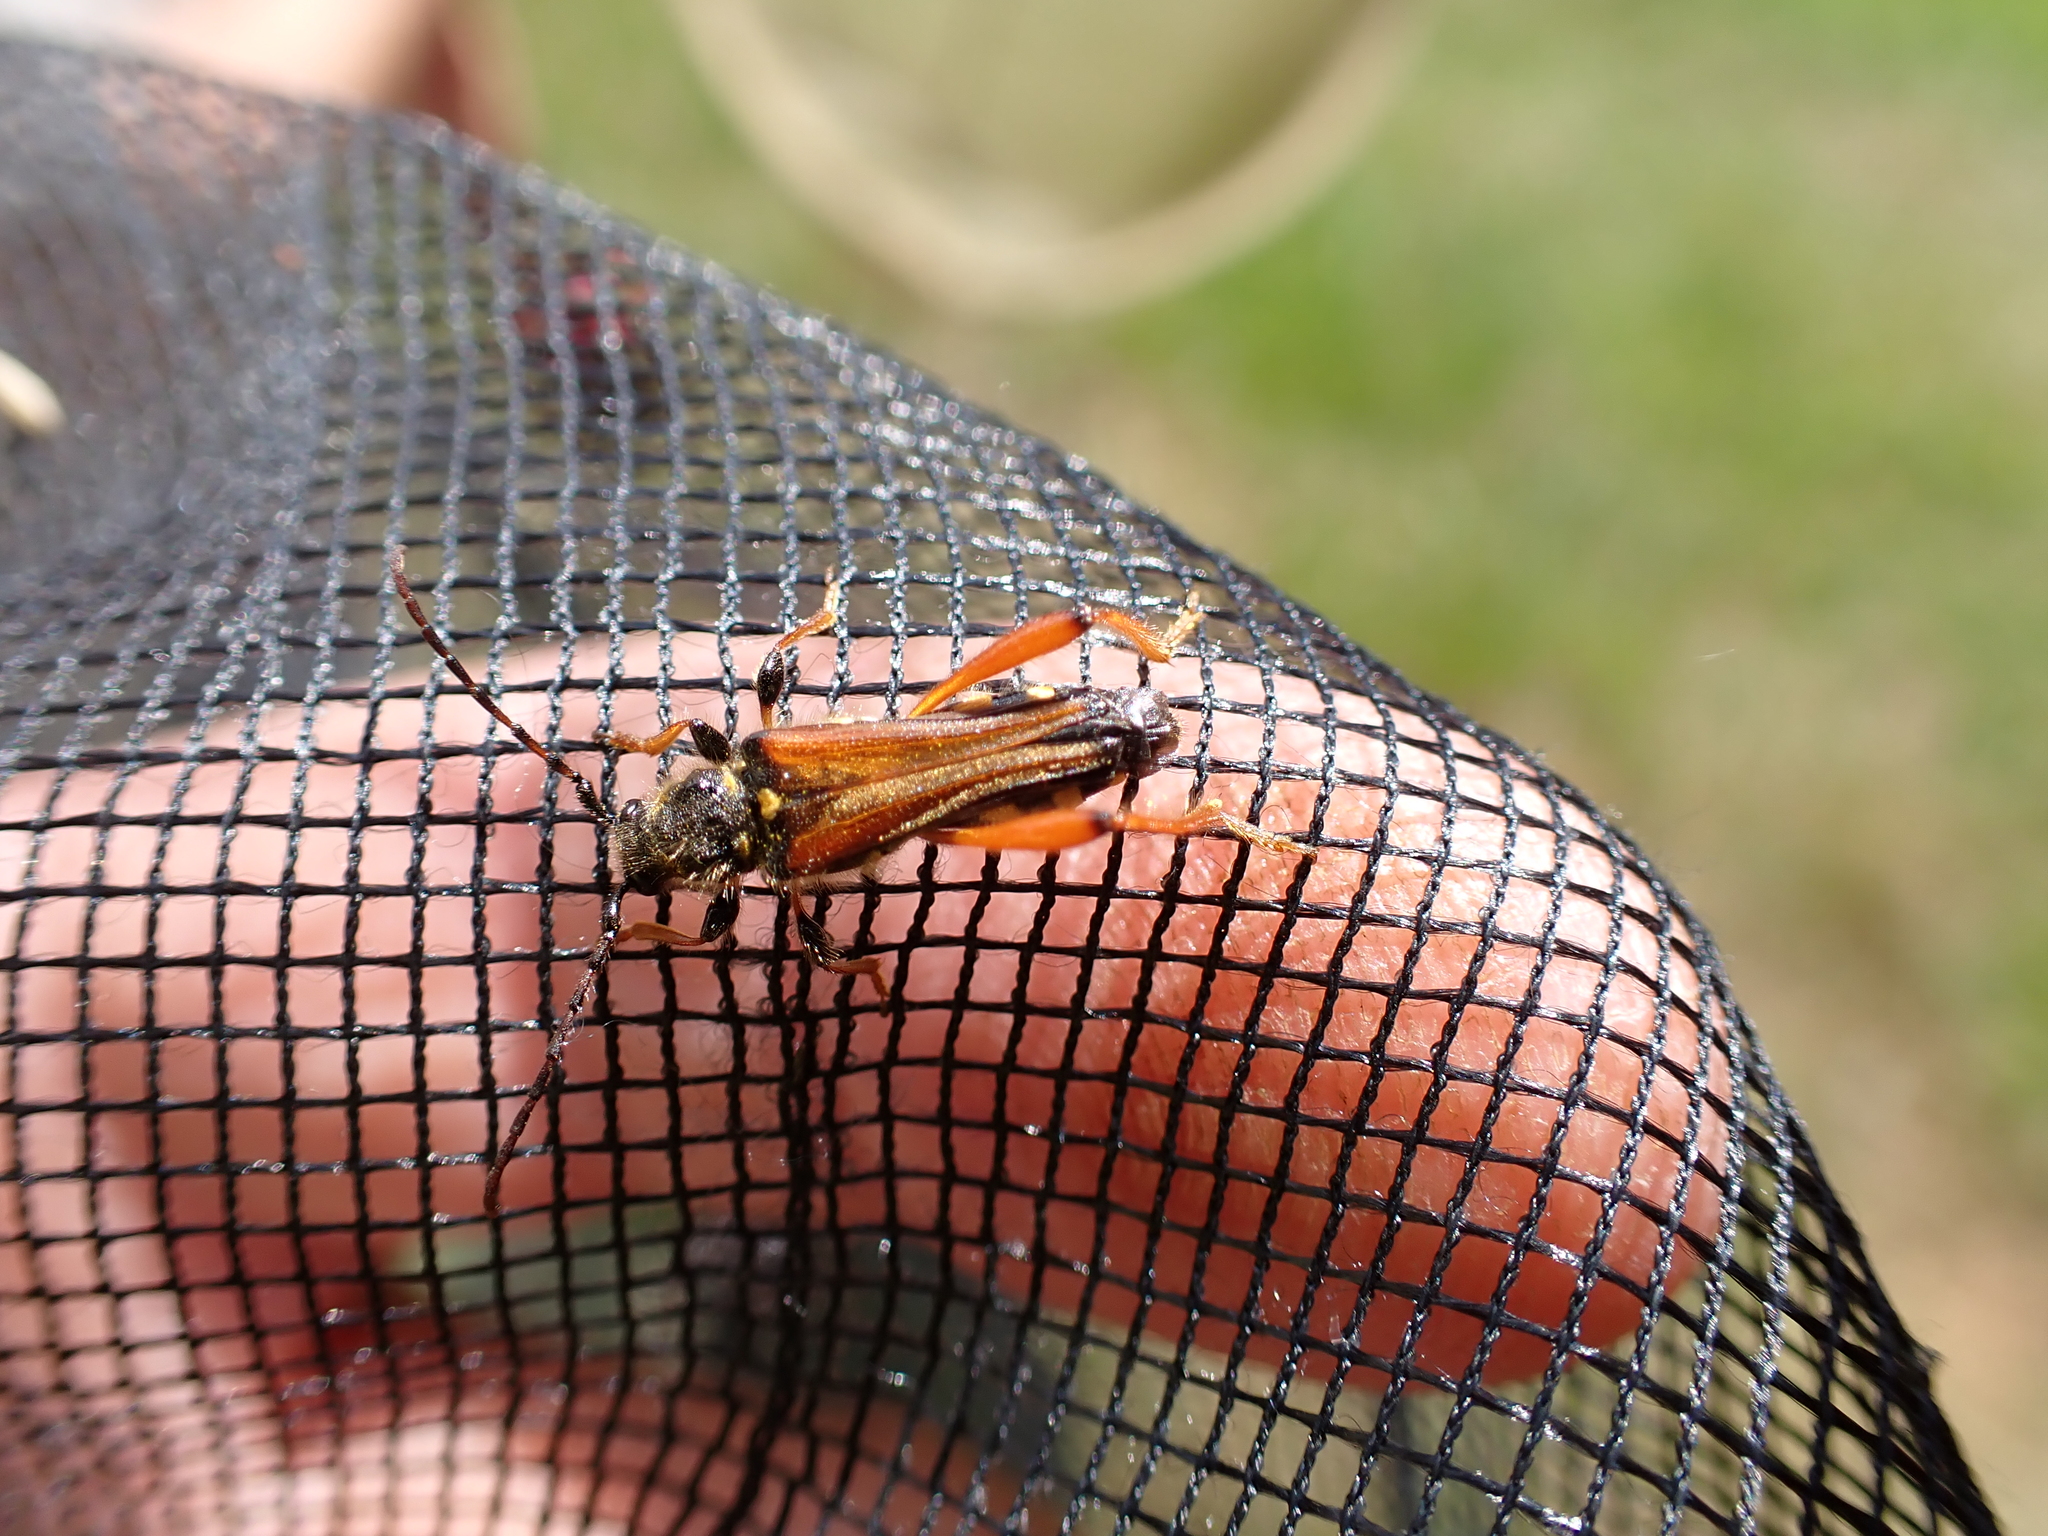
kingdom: Animalia
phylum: Arthropoda
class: Insecta
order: Coleoptera
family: Cerambycidae
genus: Stenopterus
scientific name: Stenopterus rufus
